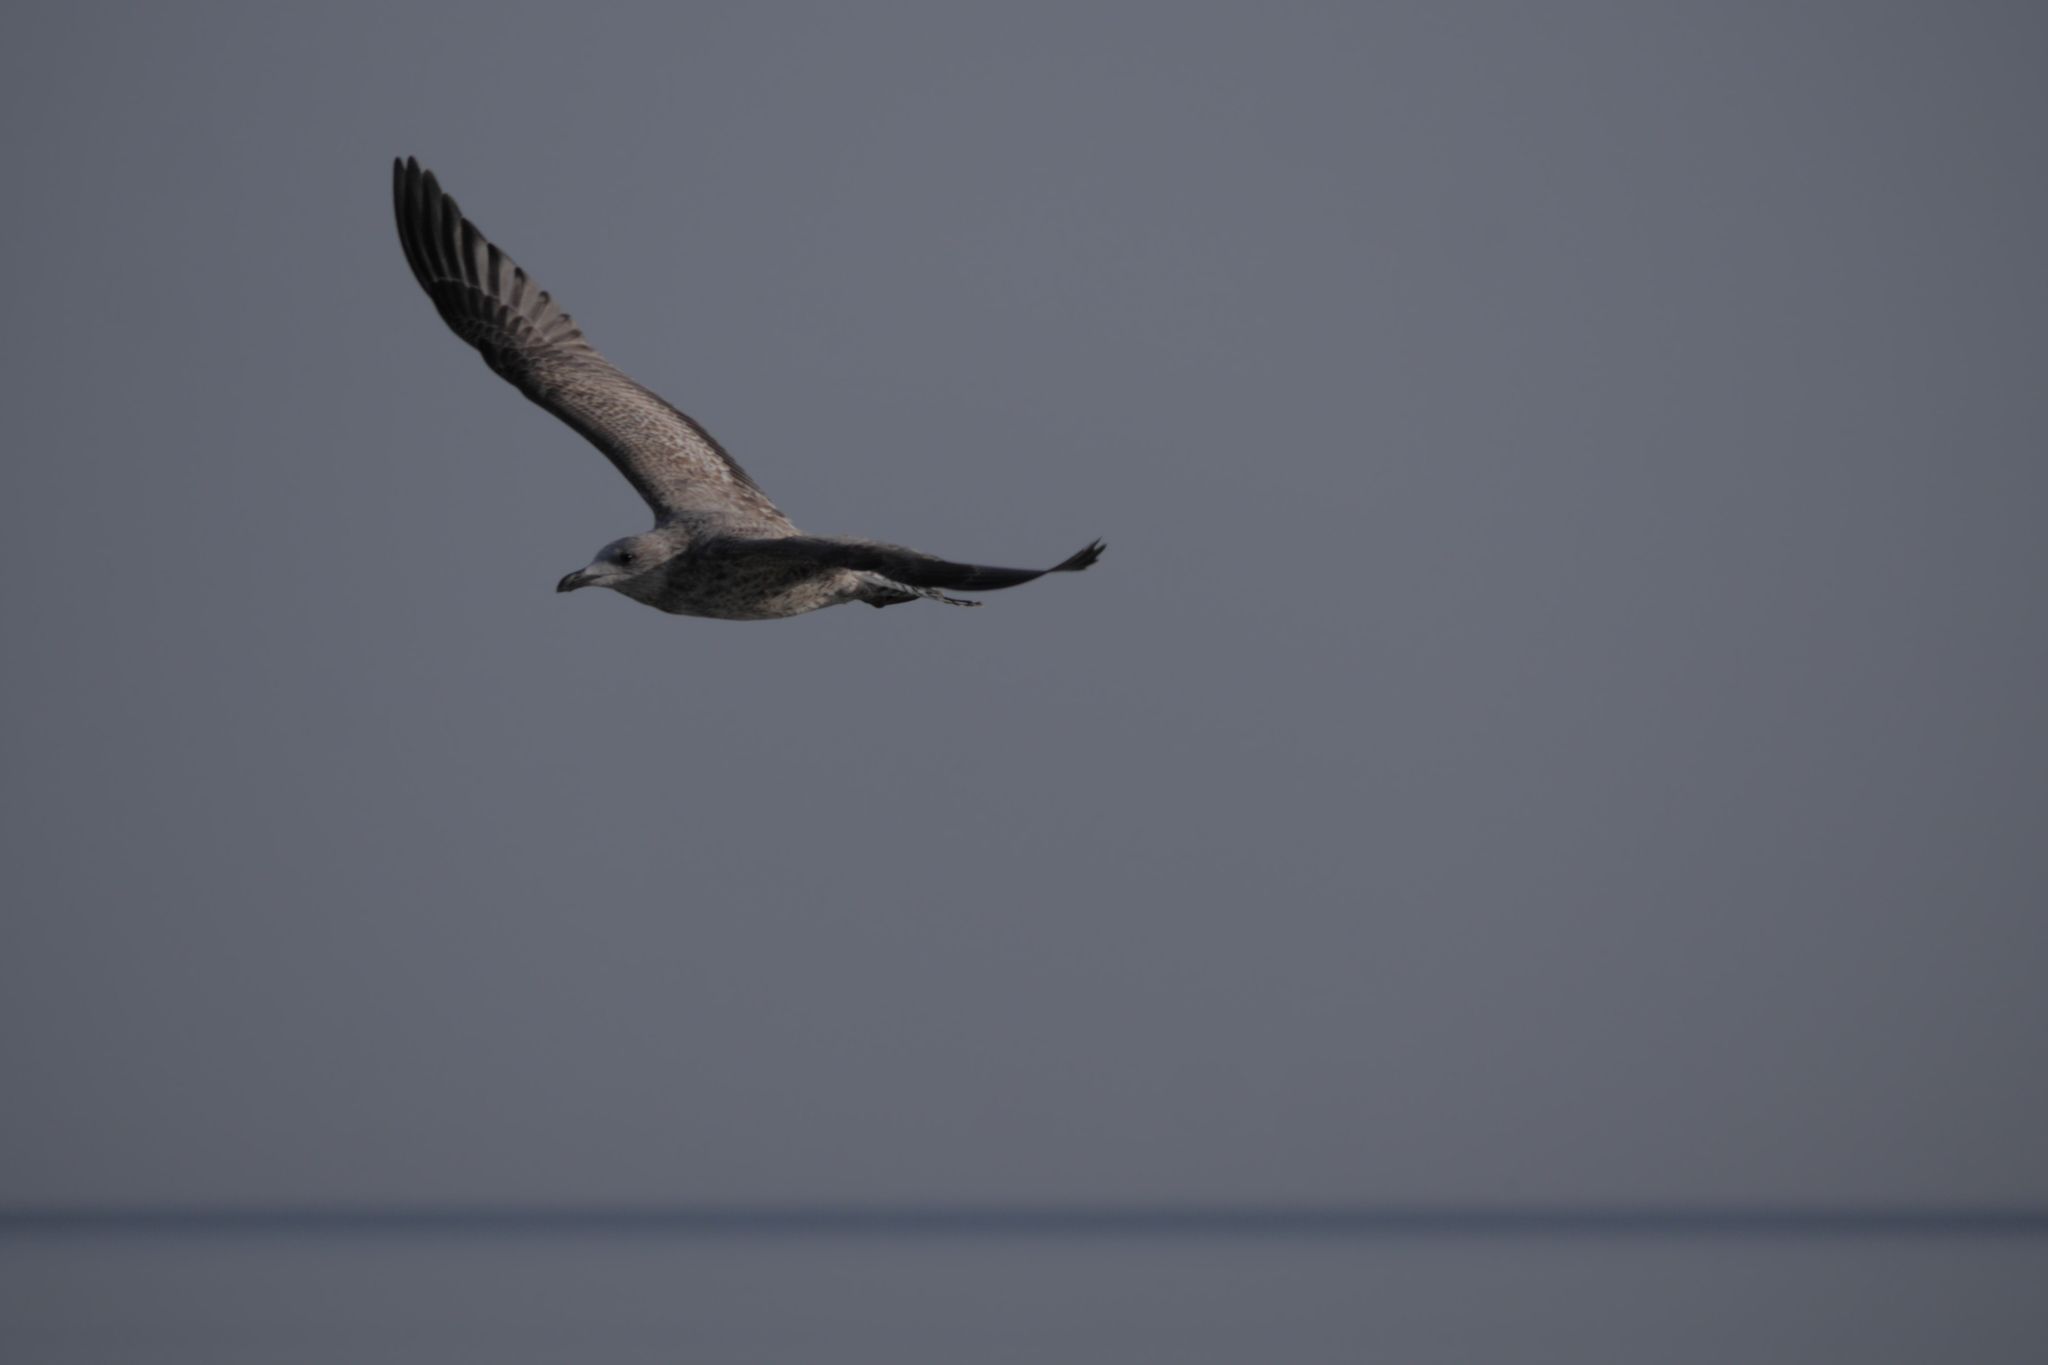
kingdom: Animalia
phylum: Chordata
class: Aves
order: Charadriiformes
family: Laridae
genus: Larus
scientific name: Larus argentatus
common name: Herring gull
